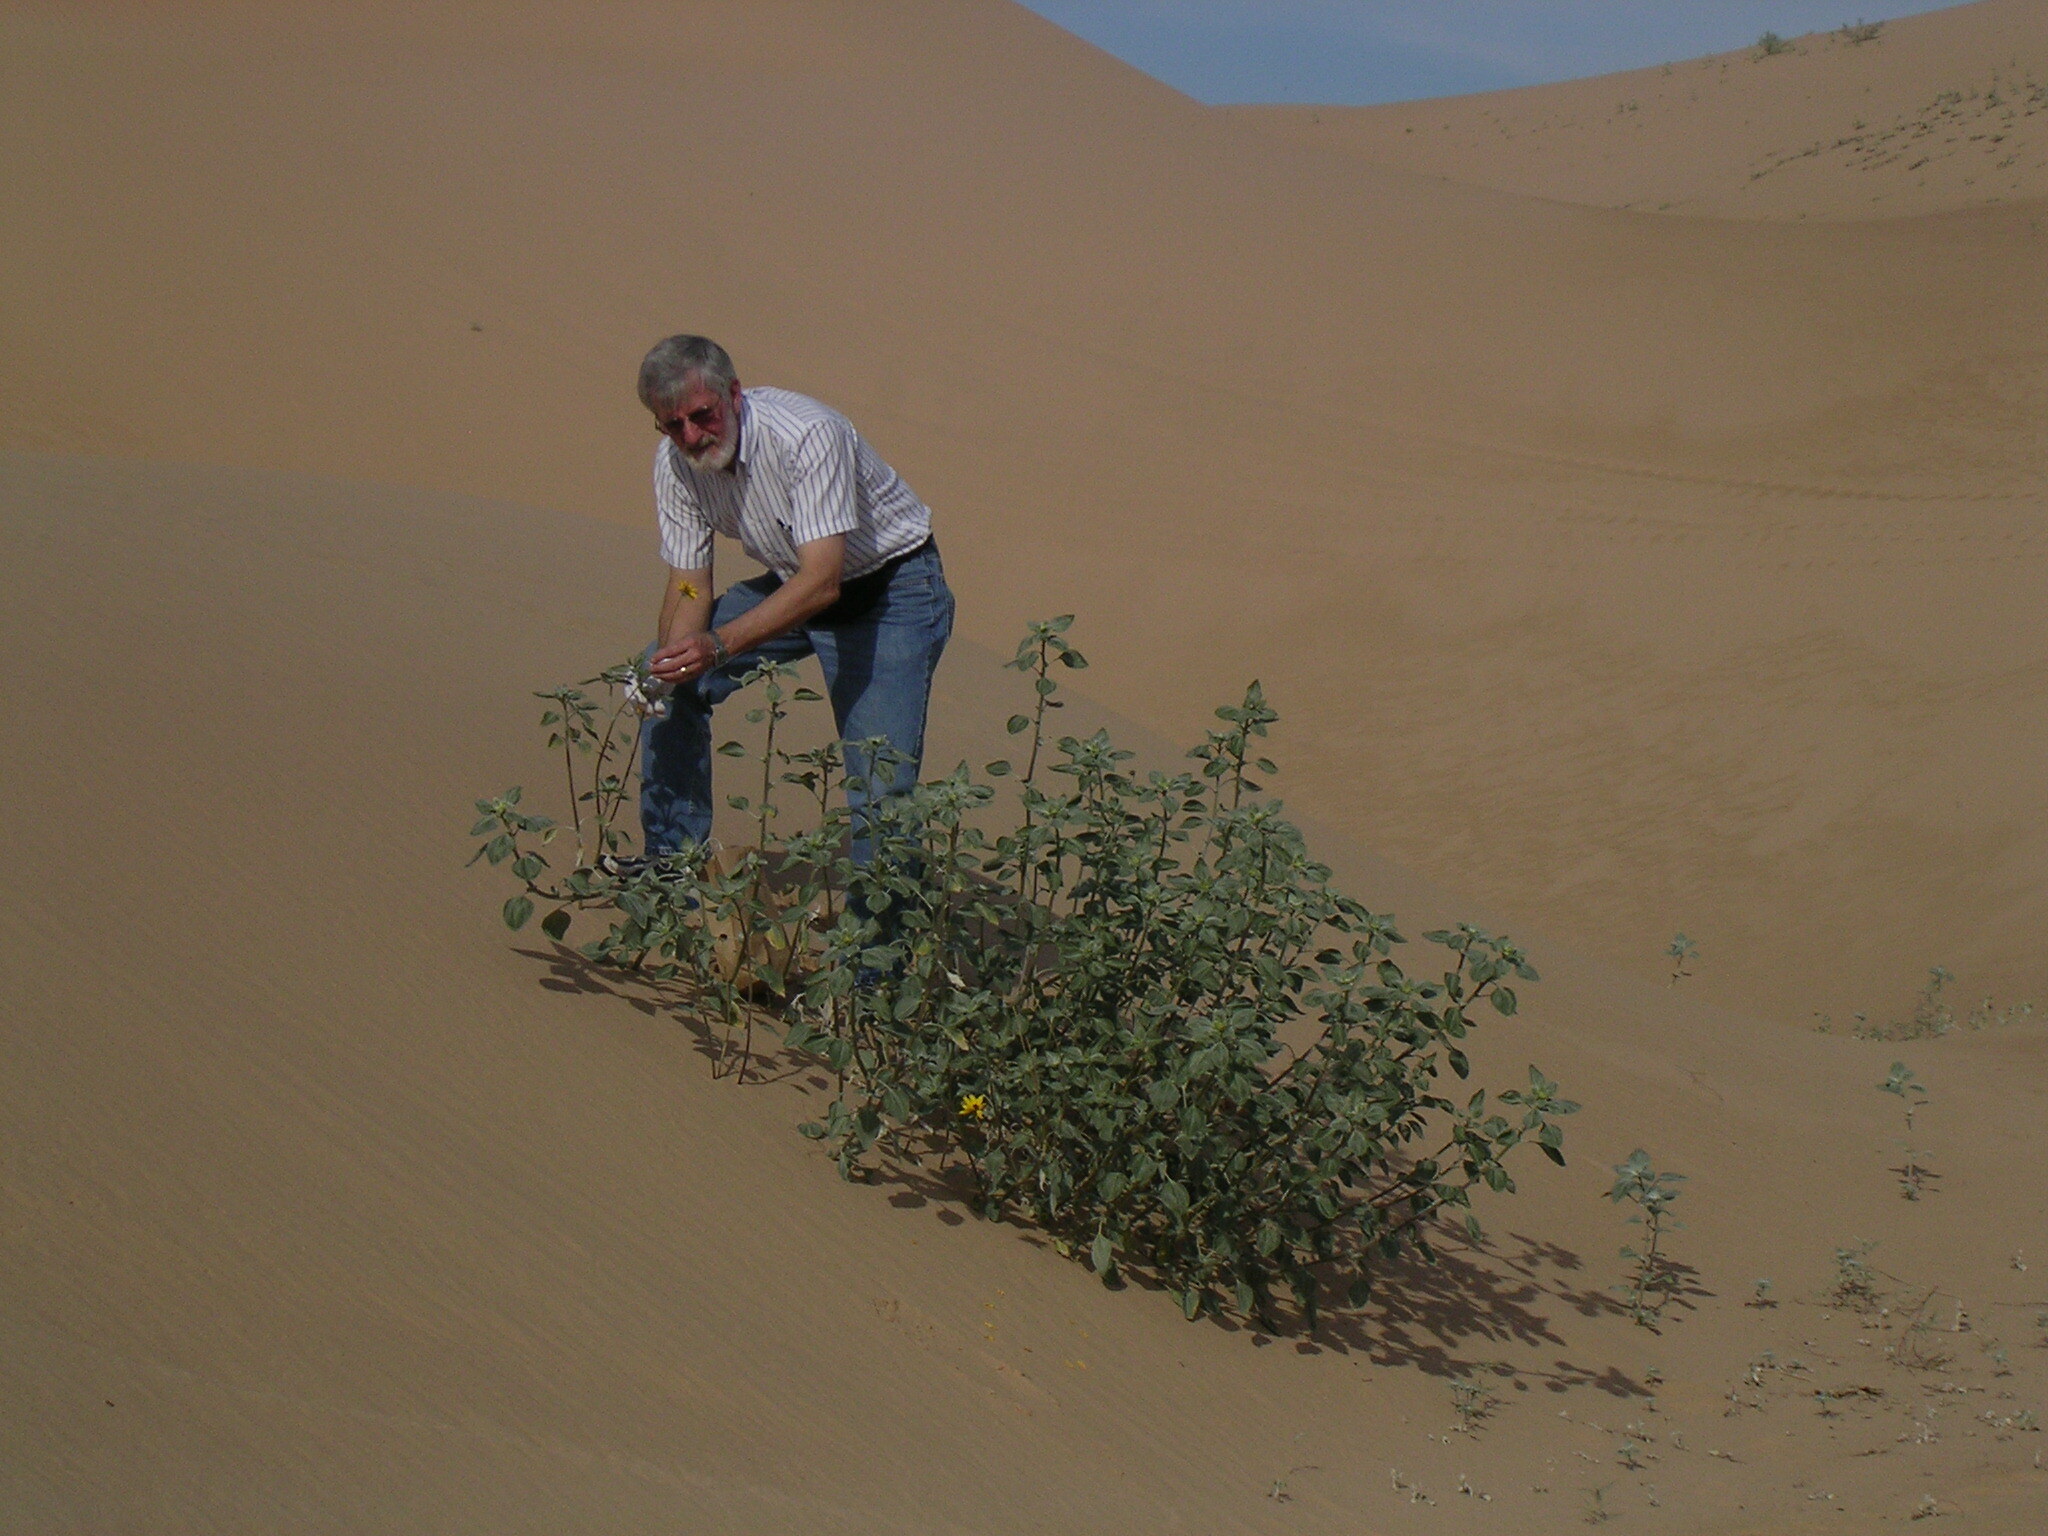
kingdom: Plantae
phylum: Tracheophyta
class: Magnoliopsida
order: Asterales
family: Asteraceae
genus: Helianthus
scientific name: Helianthus niveus
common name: Snowy sunflower
